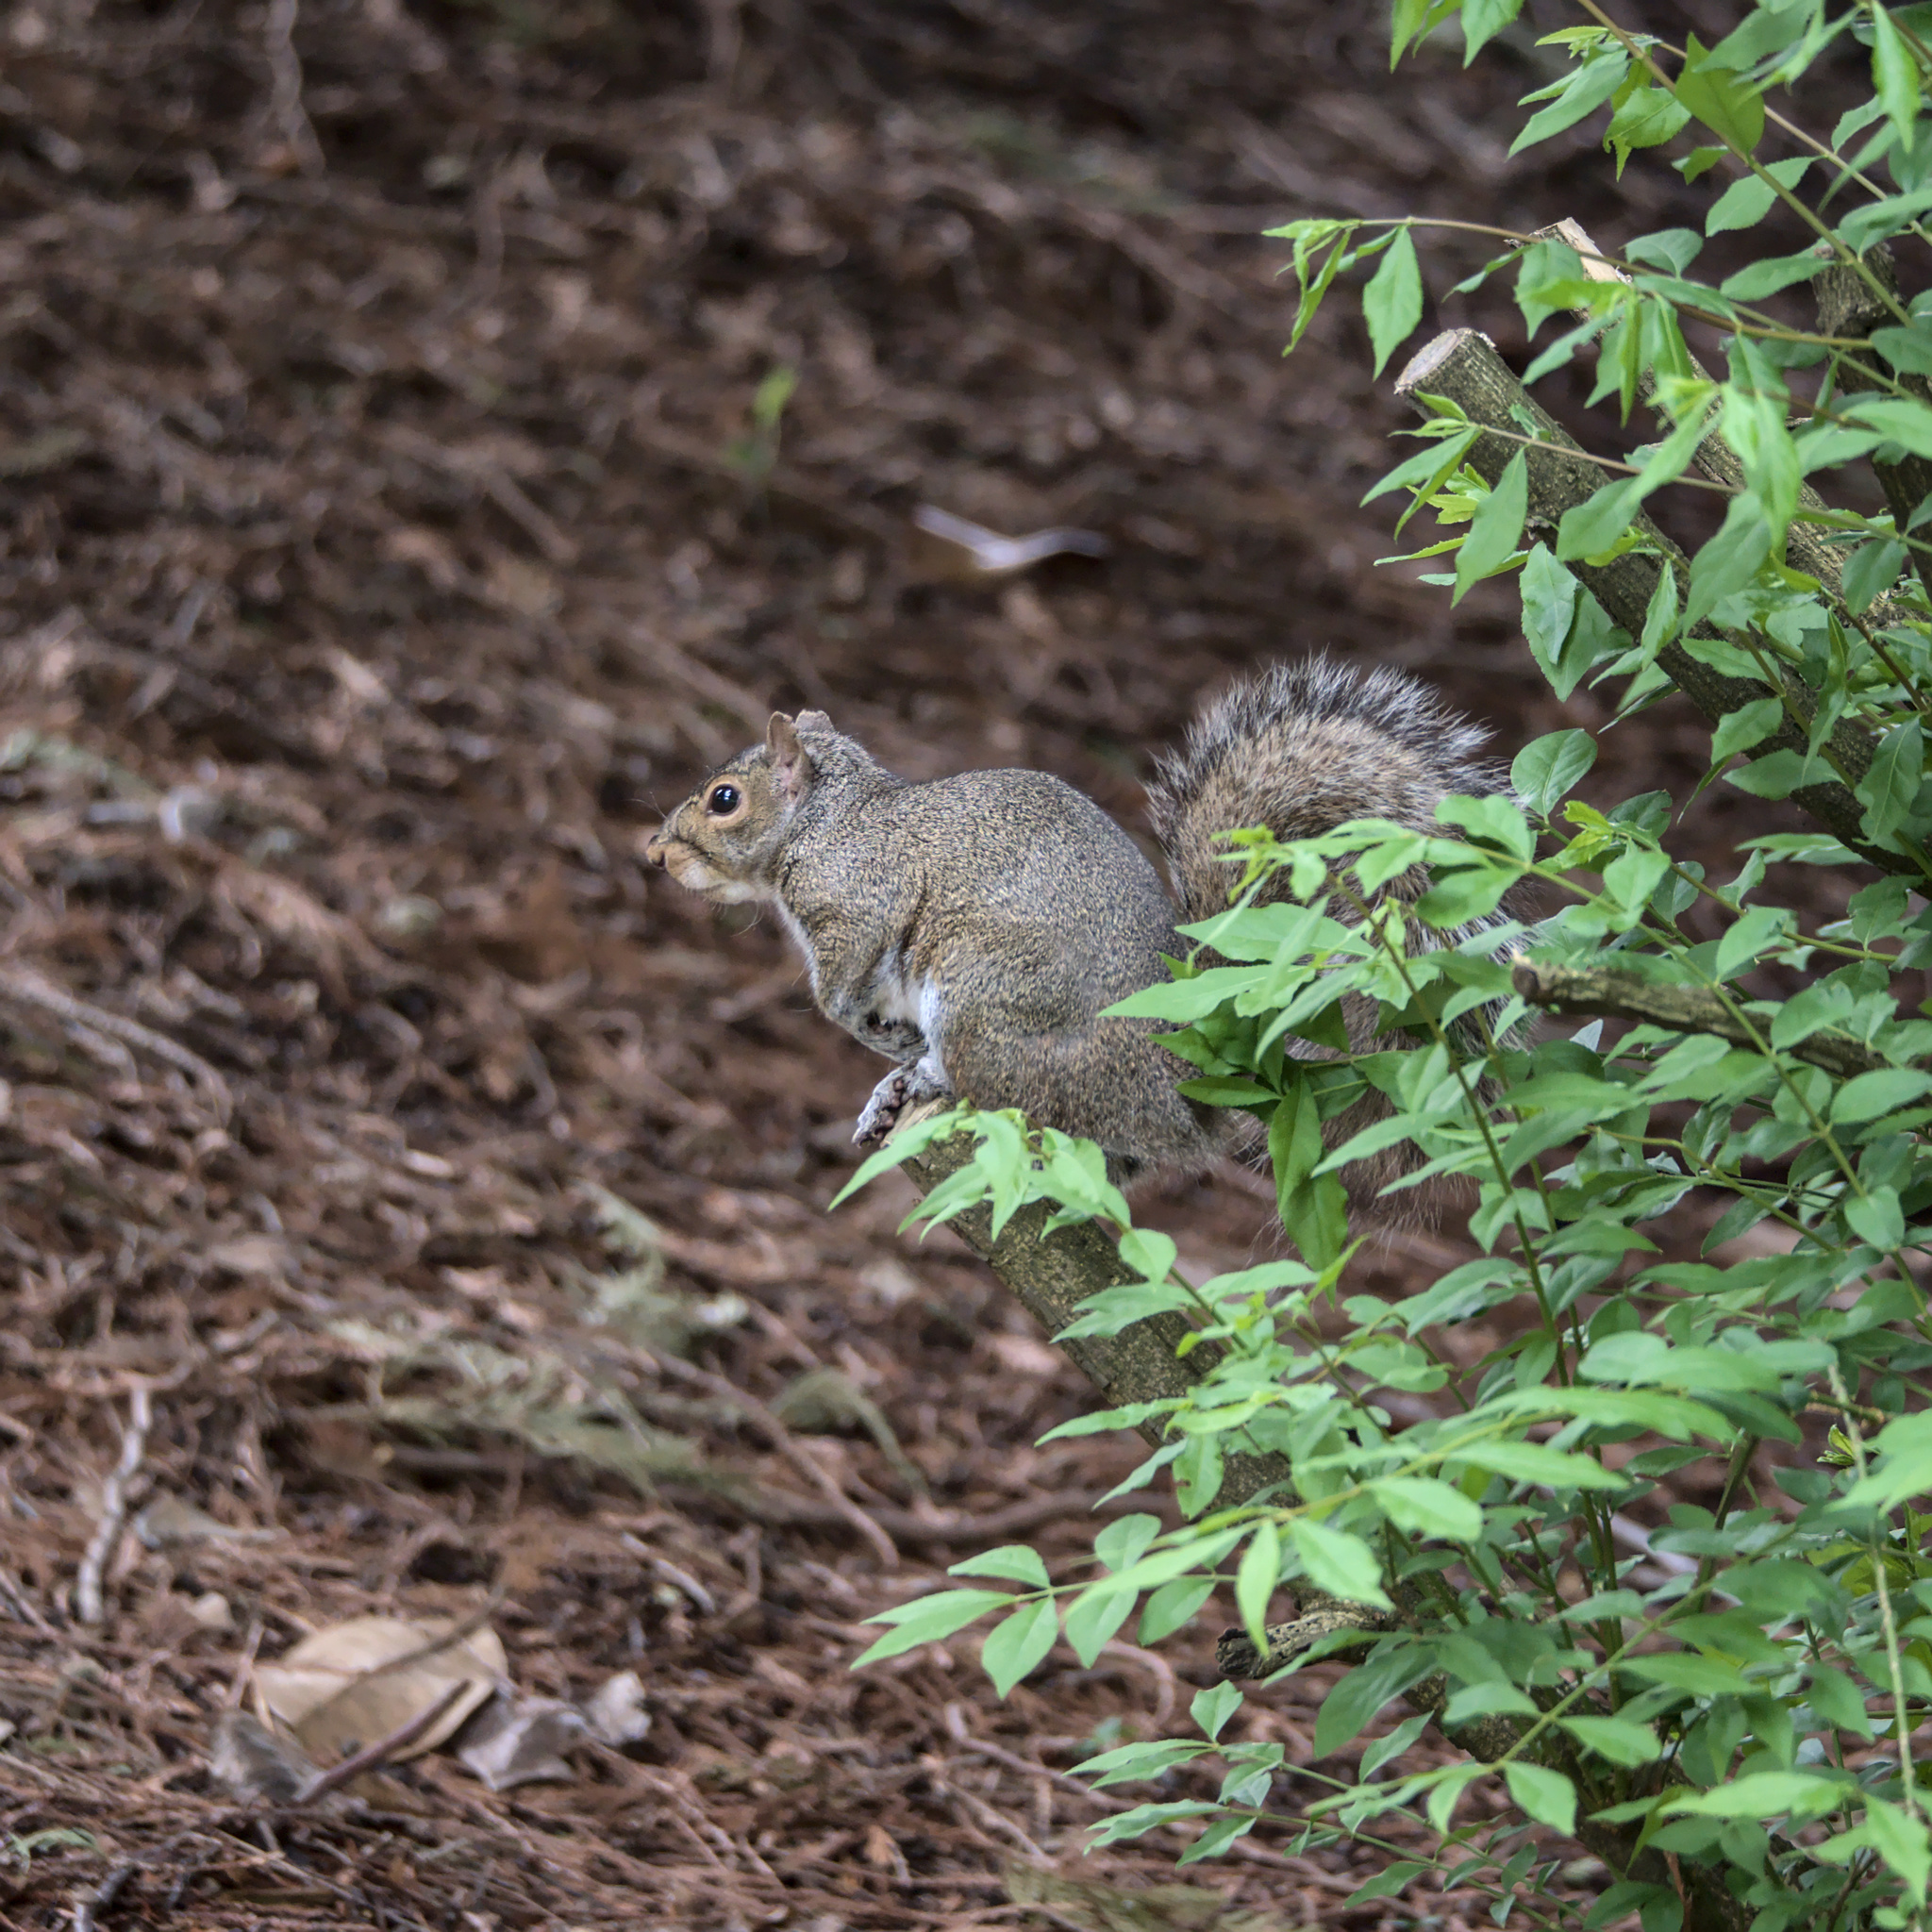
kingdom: Animalia
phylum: Chordata
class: Mammalia
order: Rodentia
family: Sciuridae
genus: Sciurus
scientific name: Sciurus carolinensis
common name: Eastern gray squirrel
